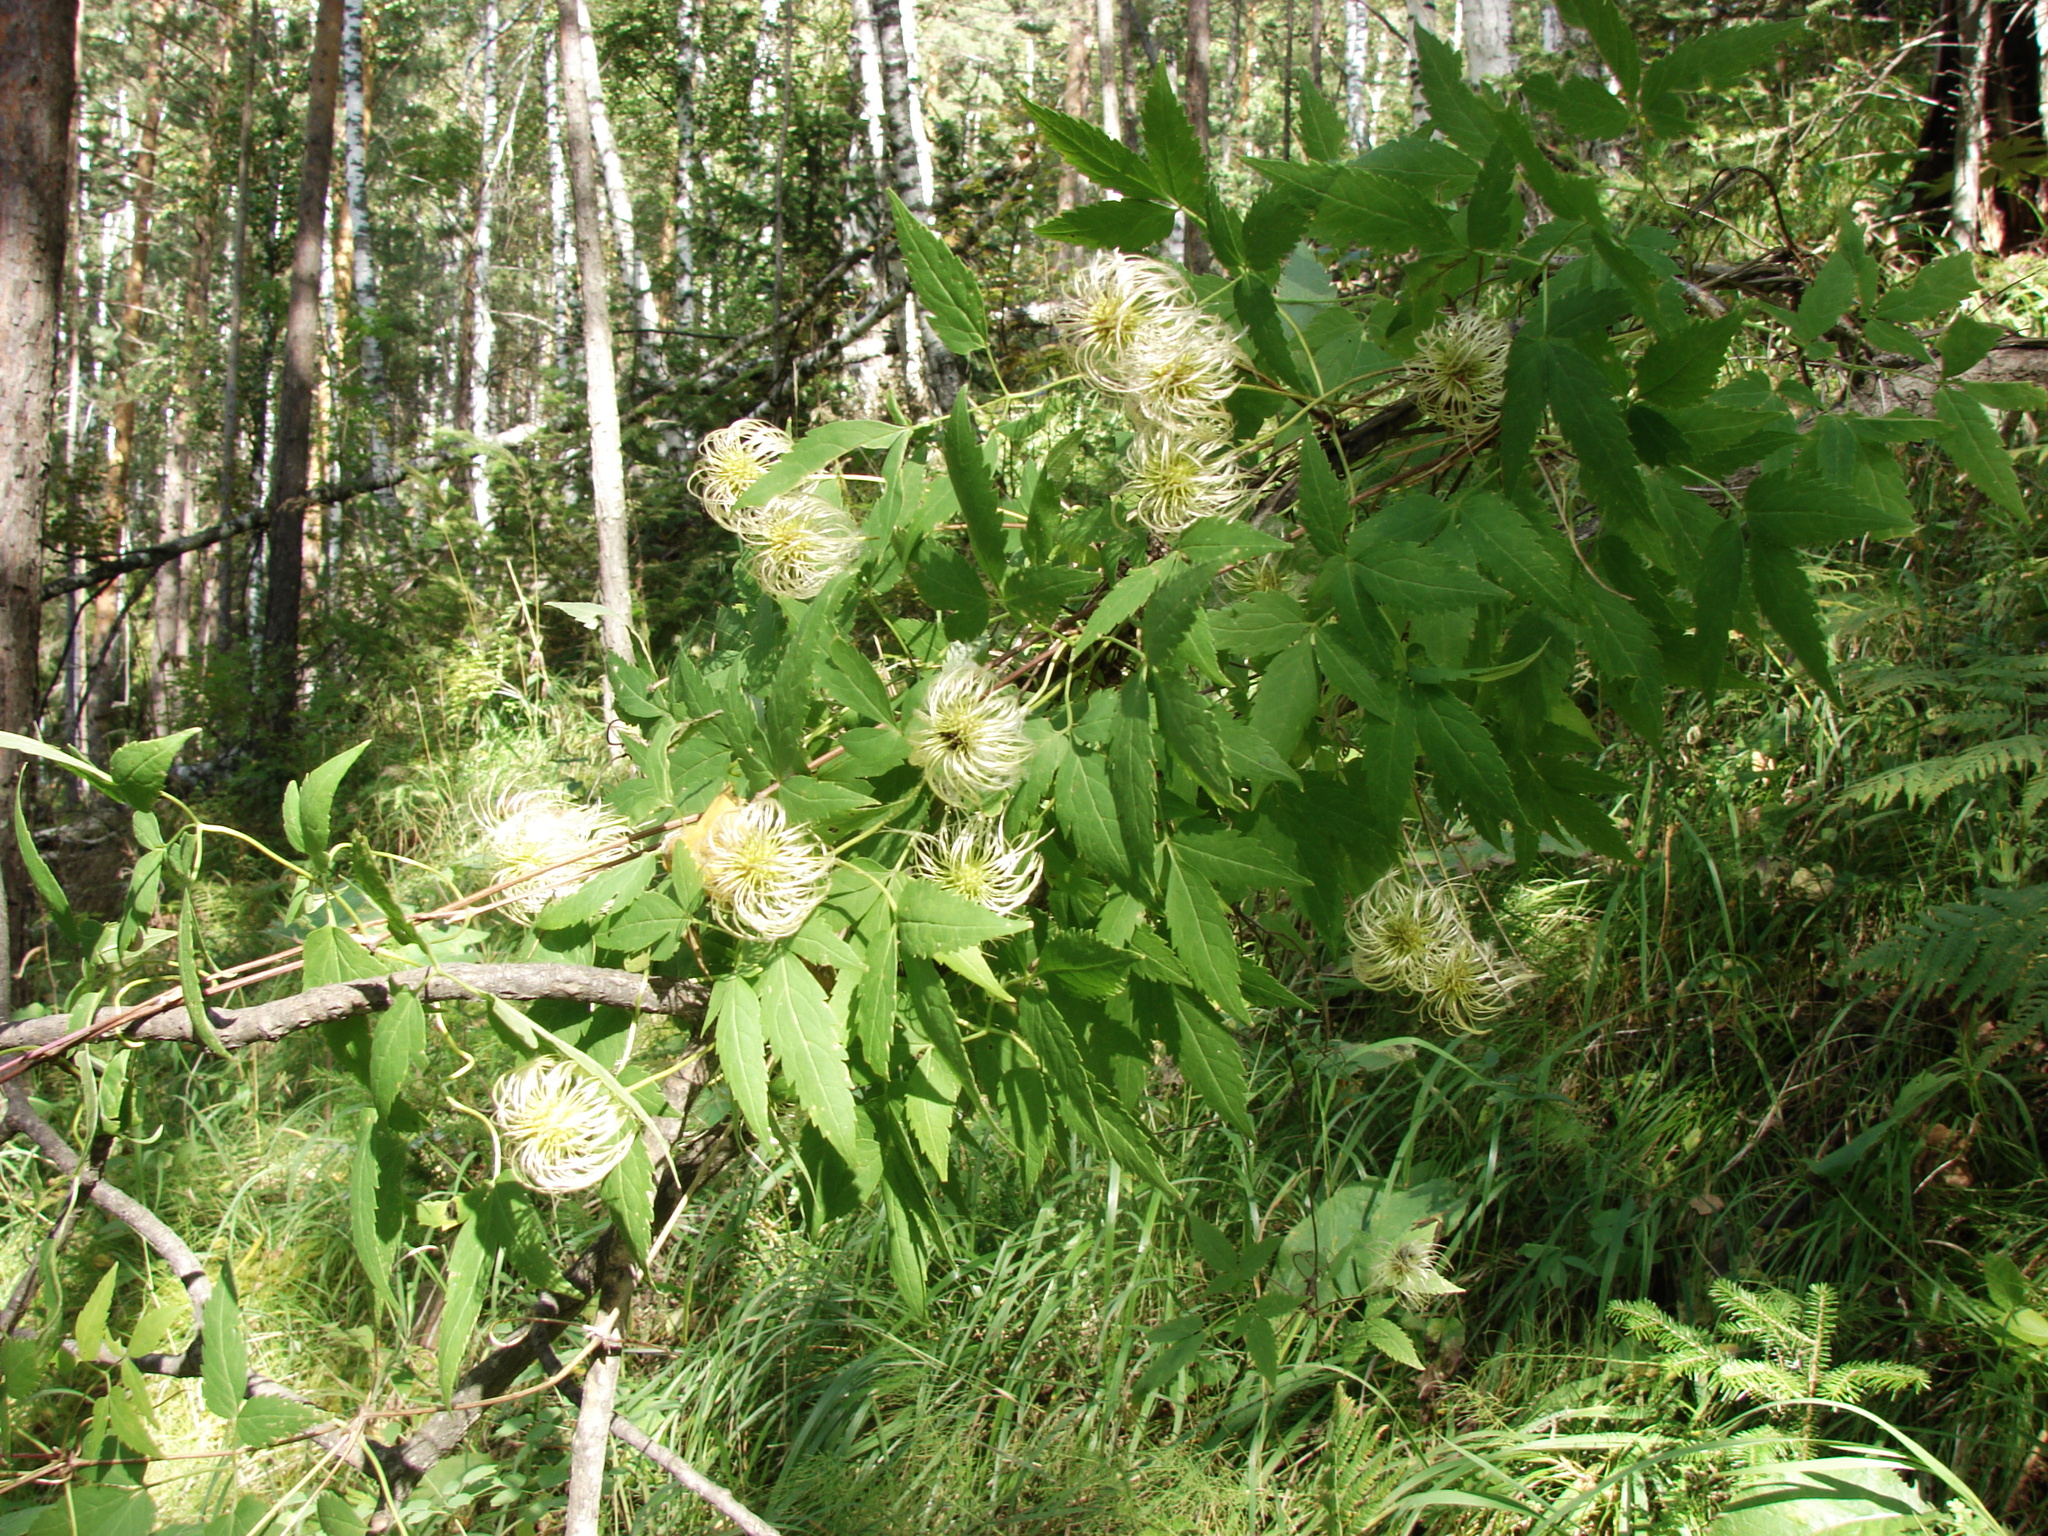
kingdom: Plantae
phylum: Tracheophyta
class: Magnoliopsida
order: Ranunculales
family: Ranunculaceae
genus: Clematis
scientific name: Clematis sibirica
